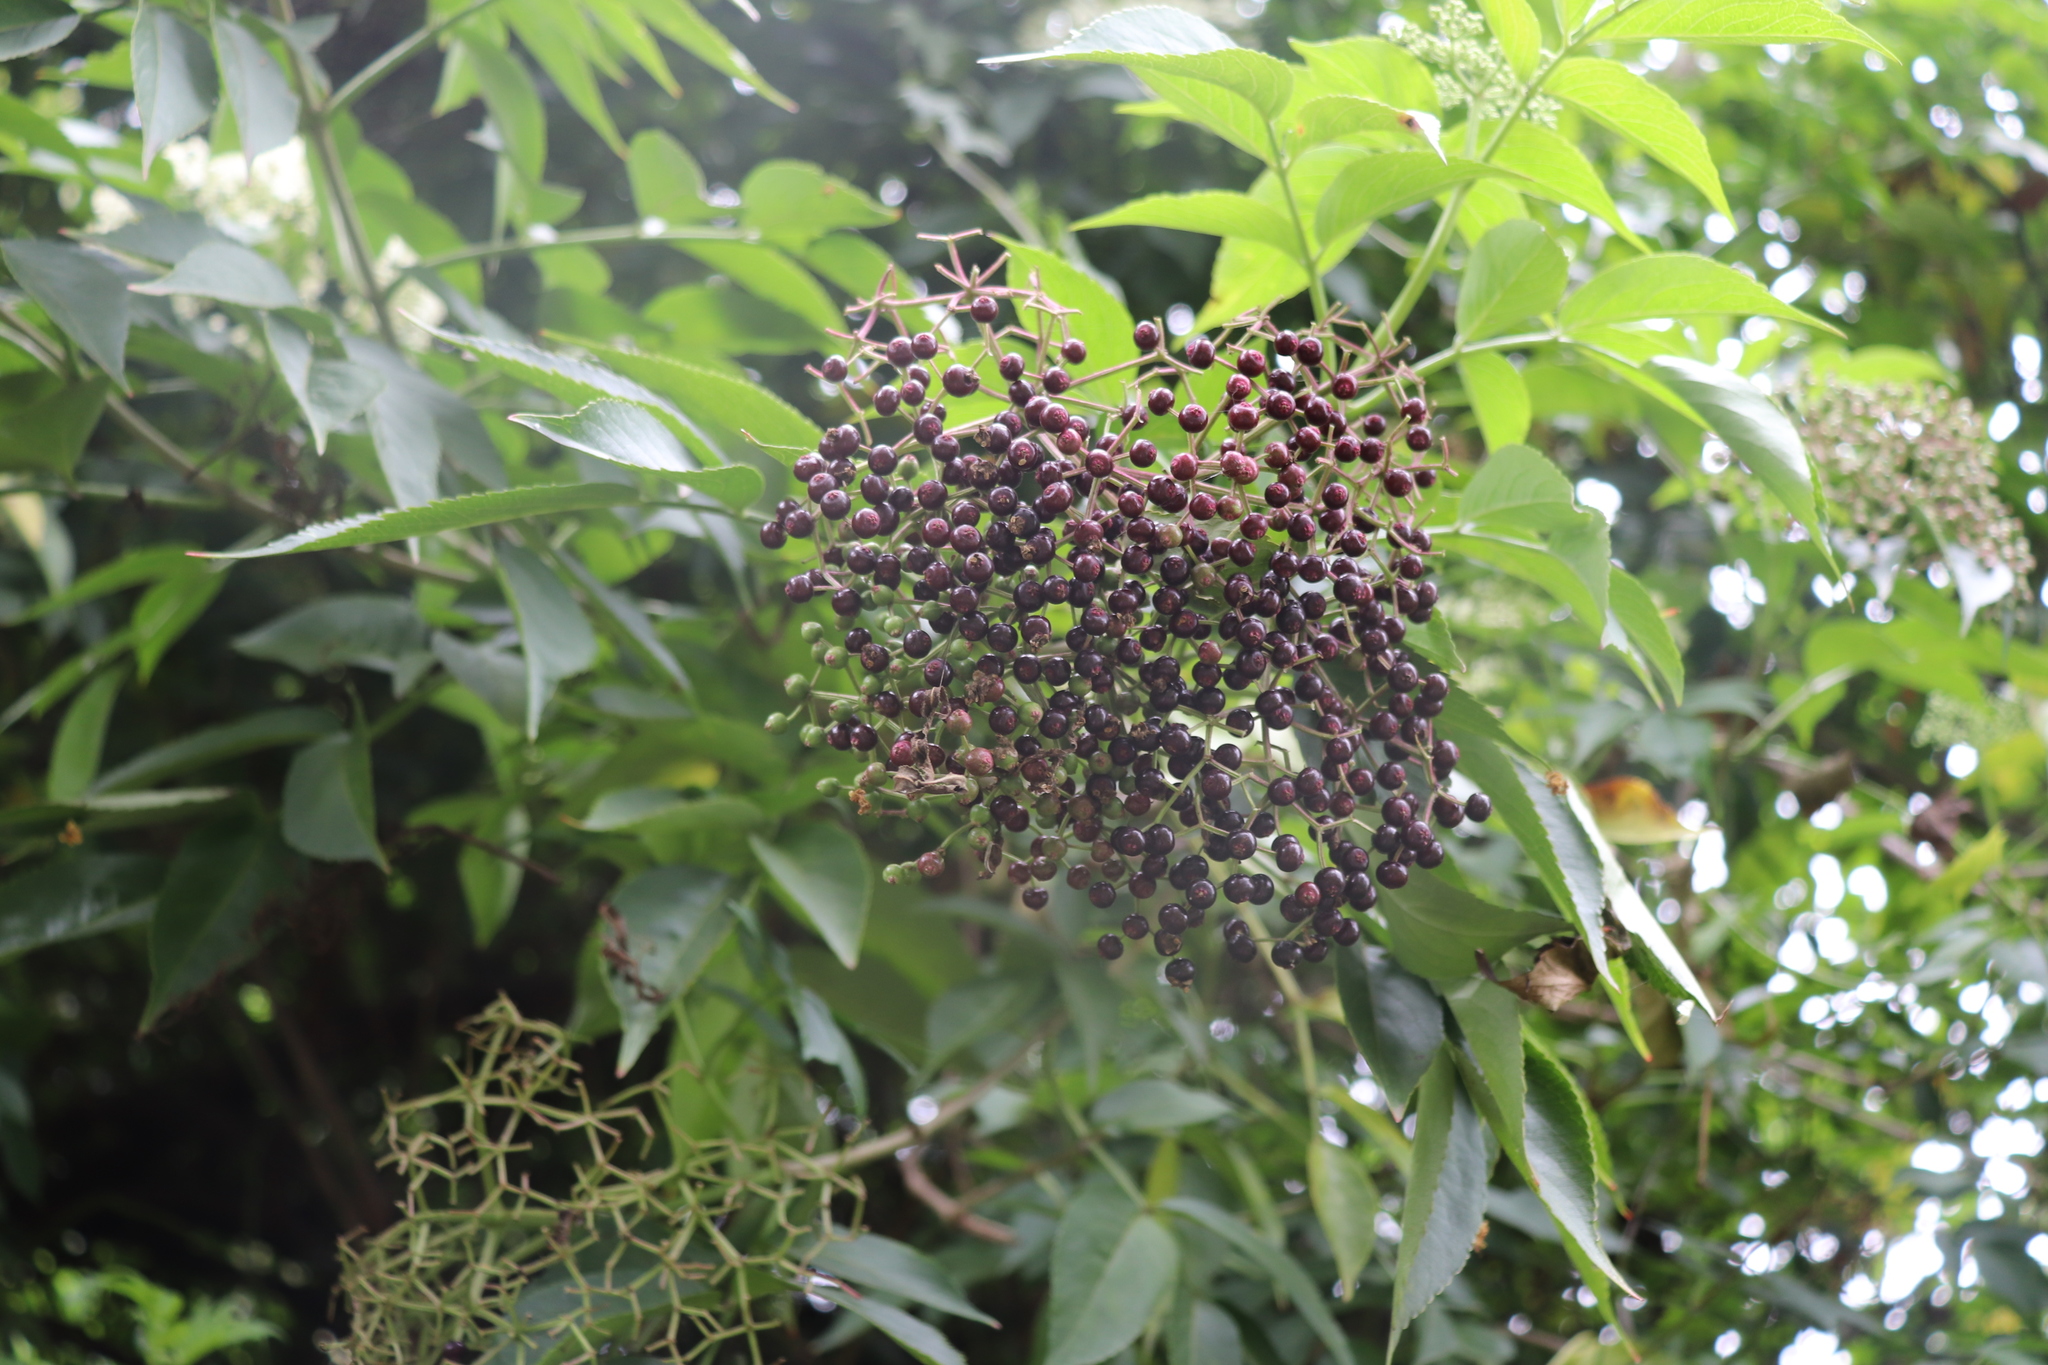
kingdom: Plantae
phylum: Tracheophyta
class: Magnoliopsida
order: Dipsacales
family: Viburnaceae
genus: Sambucus
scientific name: Sambucus nigra
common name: Elder
